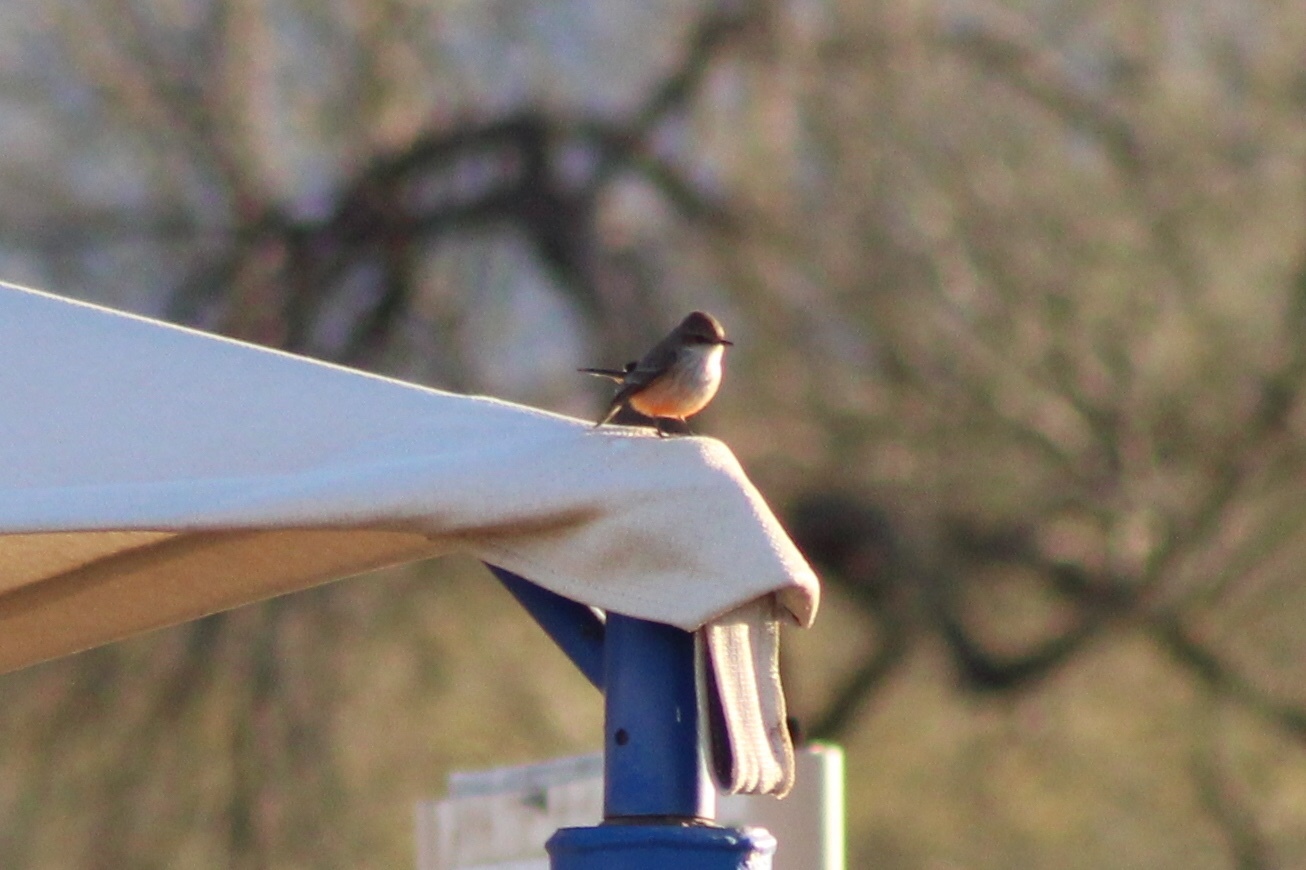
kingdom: Animalia
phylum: Chordata
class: Aves
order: Passeriformes
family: Tyrannidae
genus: Pyrocephalus
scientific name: Pyrocephalus rubinus
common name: Vermilion flycatcher
